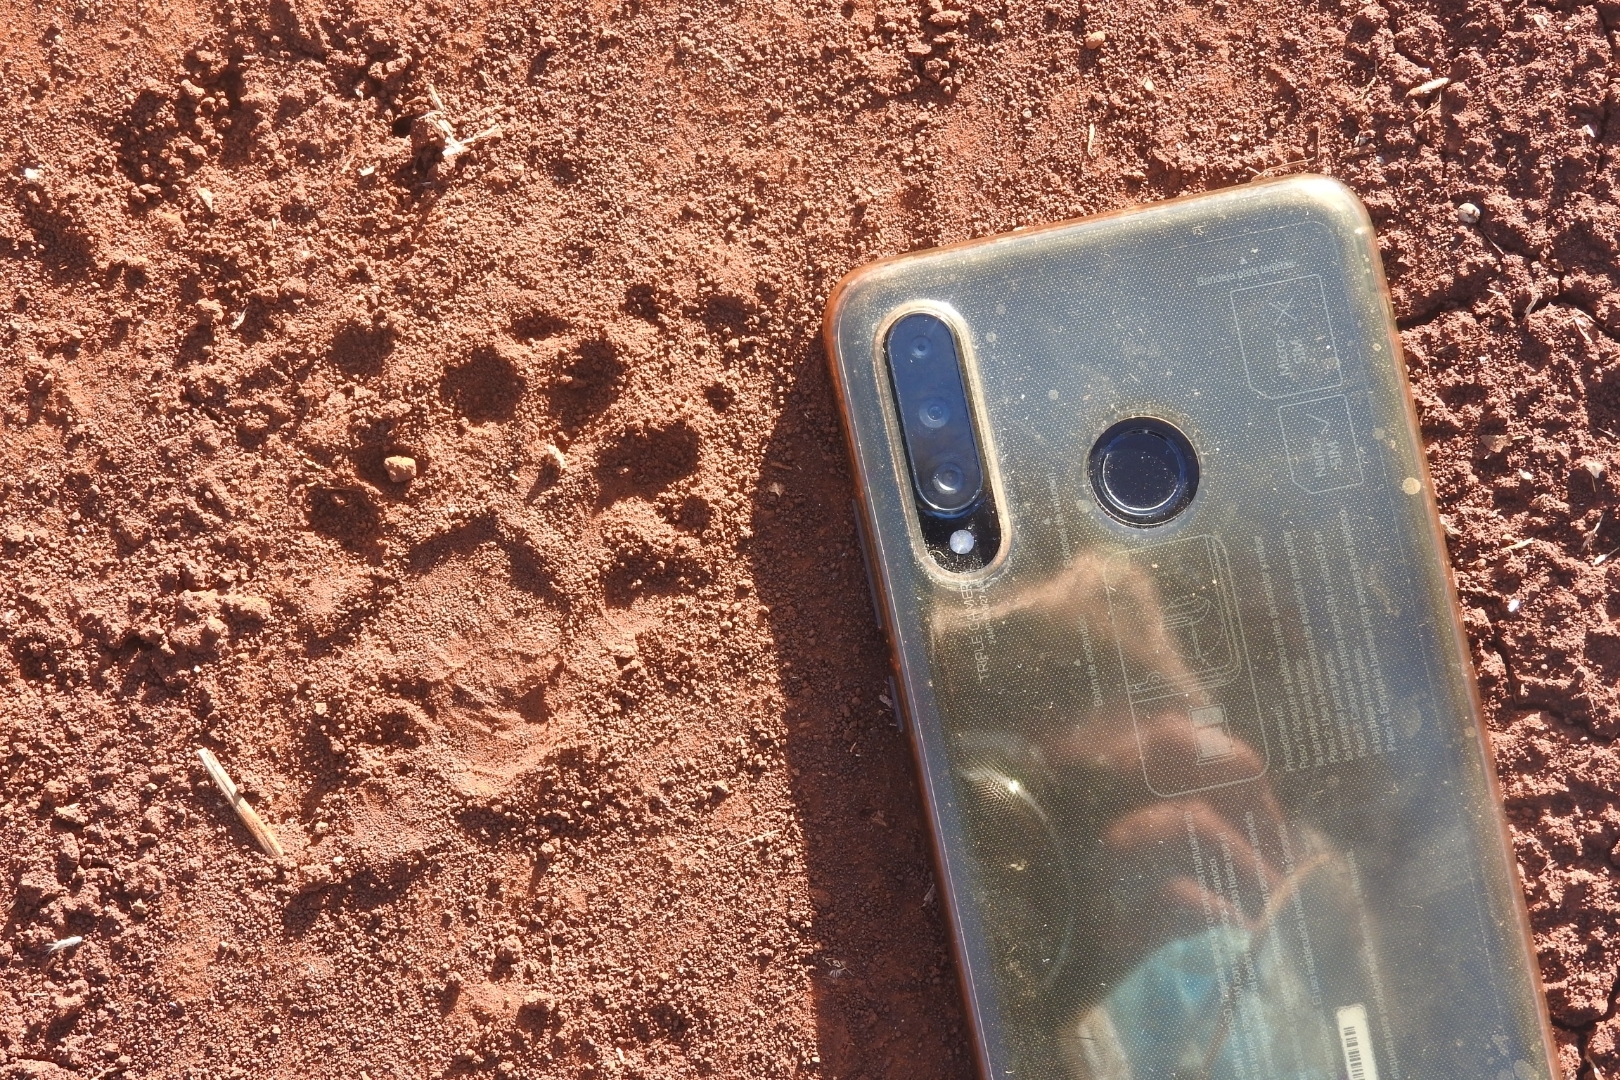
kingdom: Animalia
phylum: Chordata
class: Mammalia
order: Carnivora
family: Procyonidae
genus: Procyon
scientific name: Procyon lotor
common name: Raccoon
